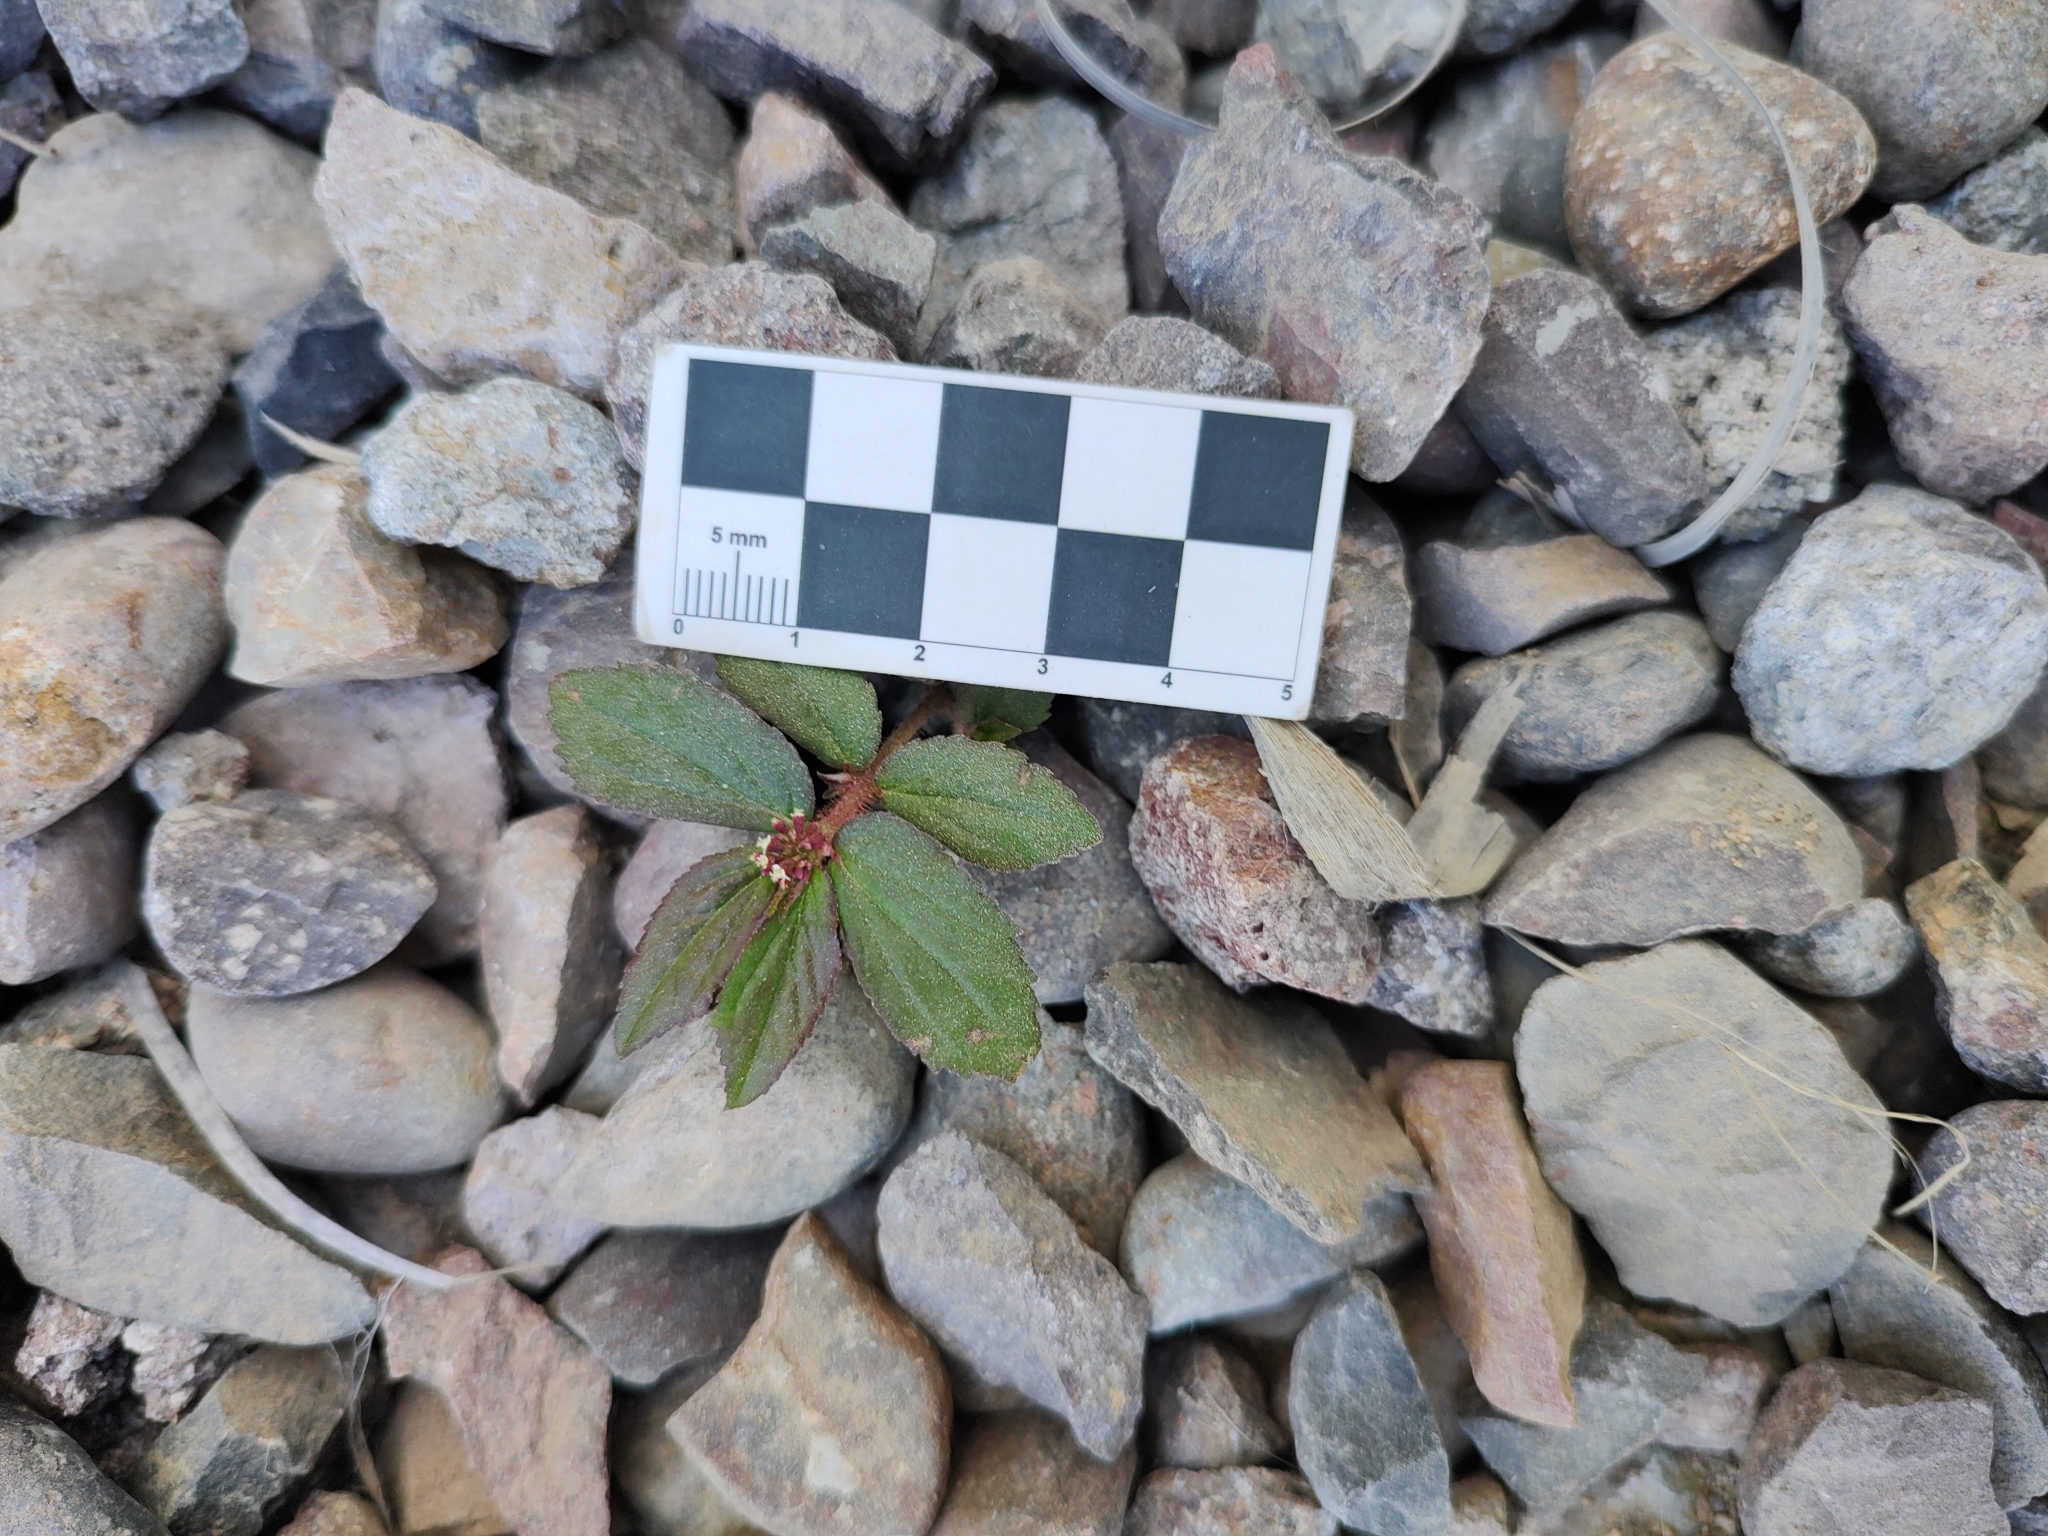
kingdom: Plantae
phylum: Tracheophyta
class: Magnoliopsida
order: Malpighiales
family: Euphorbiaceae
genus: Euphorbia
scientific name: Euphorbia hirta
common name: Pillpod sandmat
